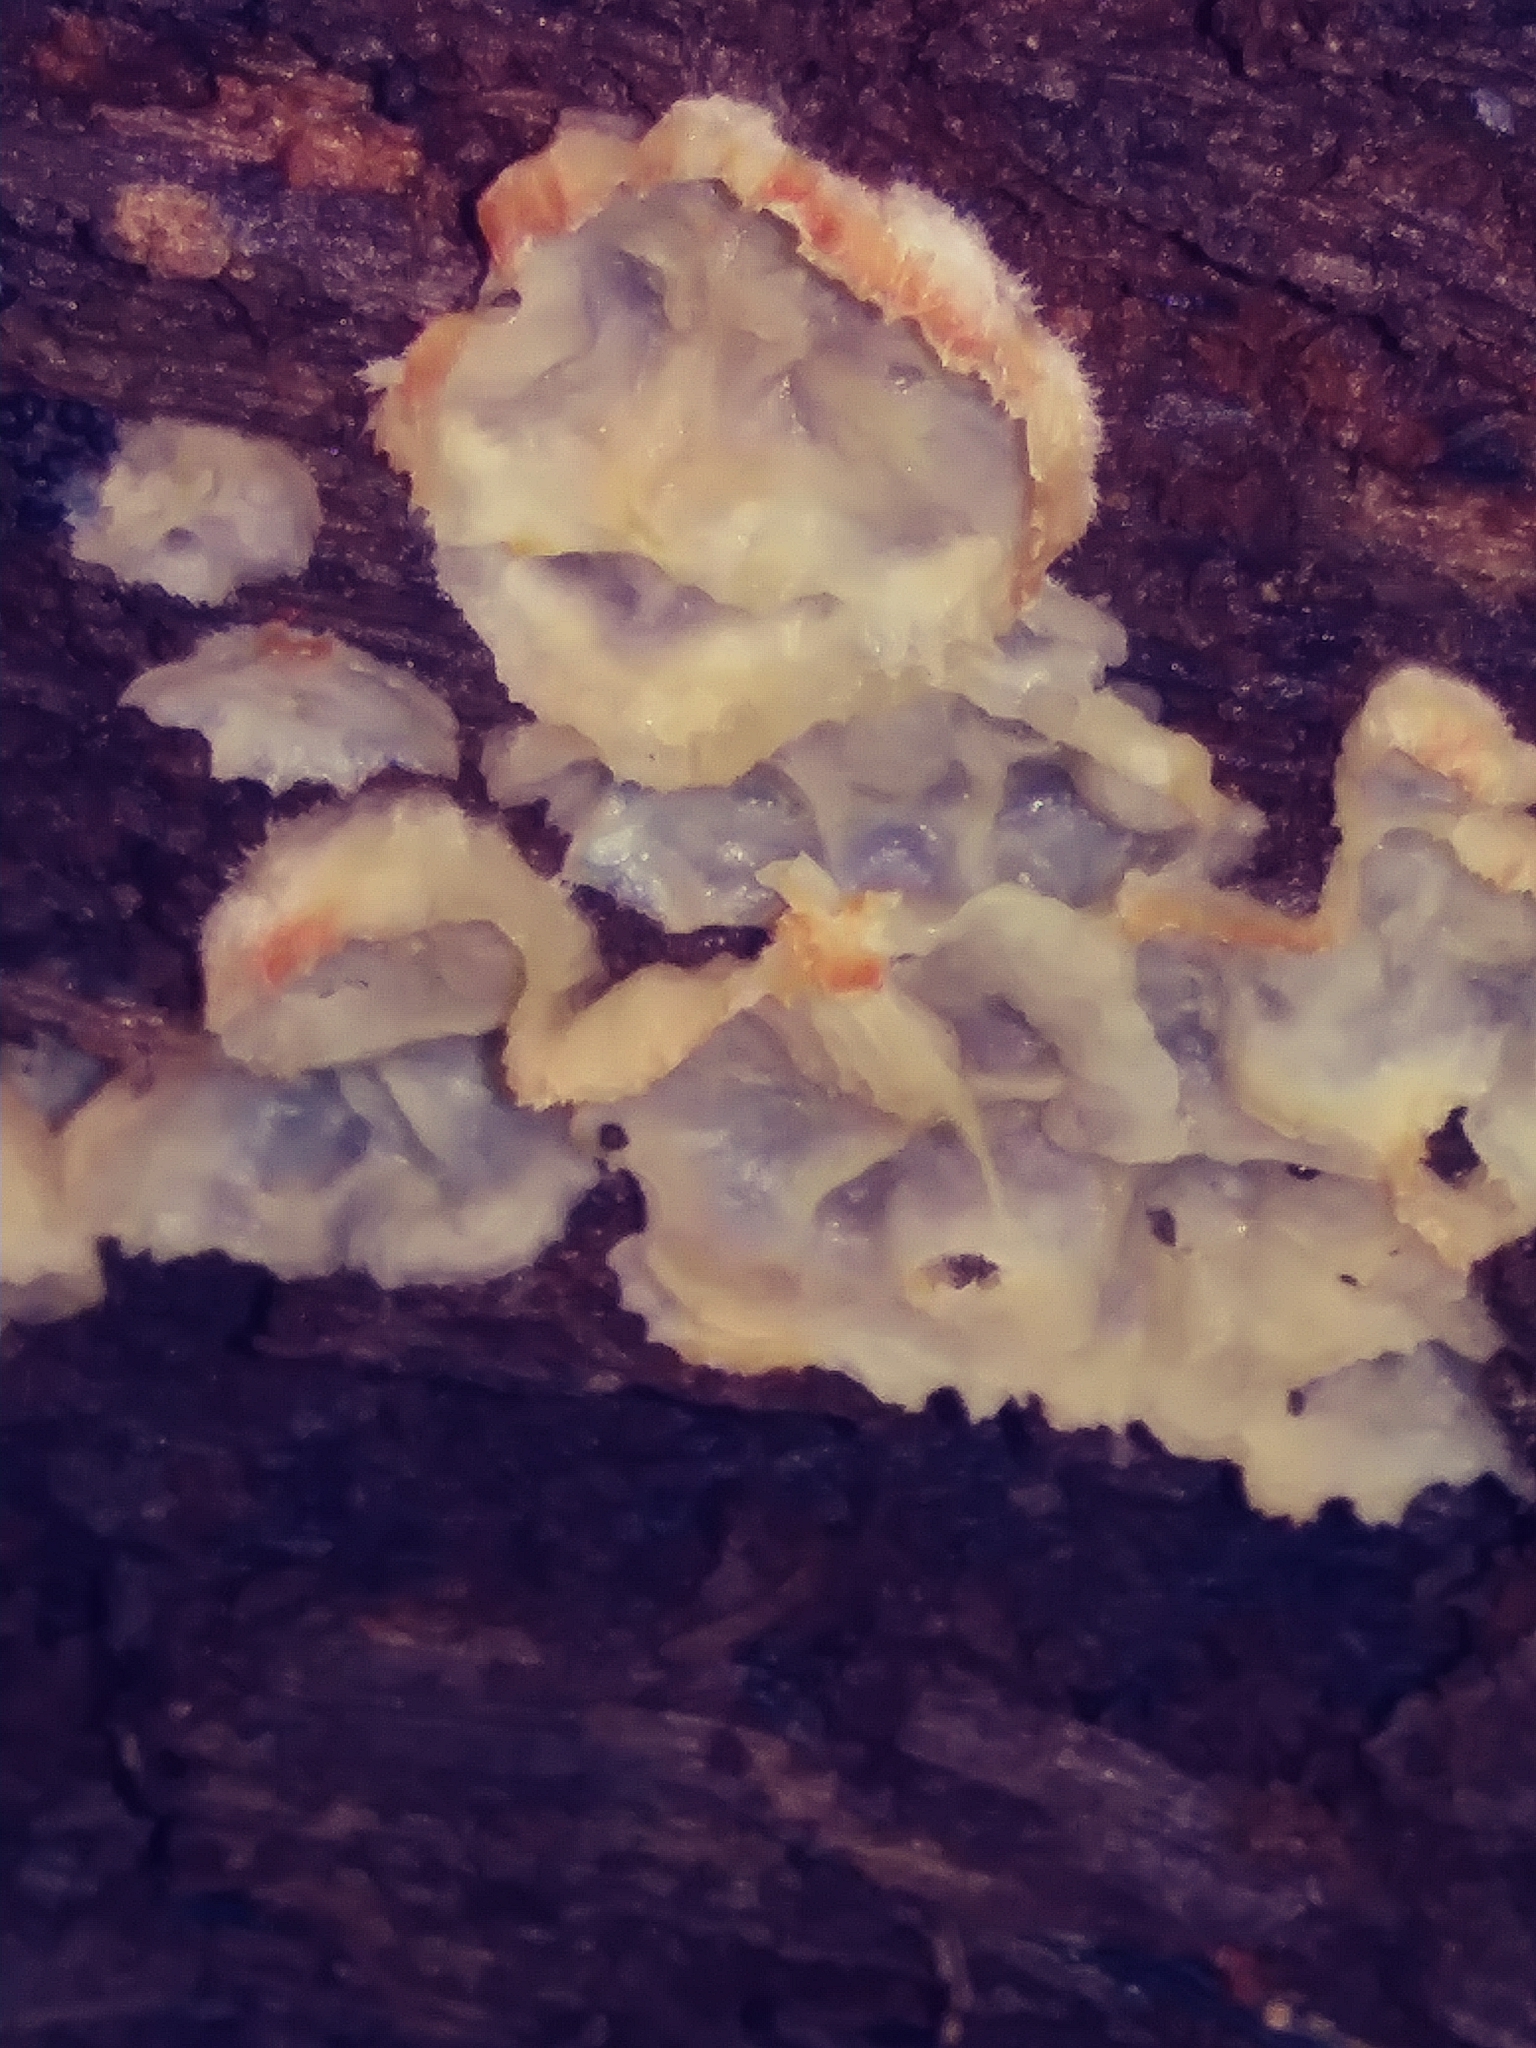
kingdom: Fungi
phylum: Basidiomycota
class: Agaricomycetes
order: Polyporales
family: Meruliaceae
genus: Phlebia
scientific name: Phlebia tremellosa
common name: Jelly rot
